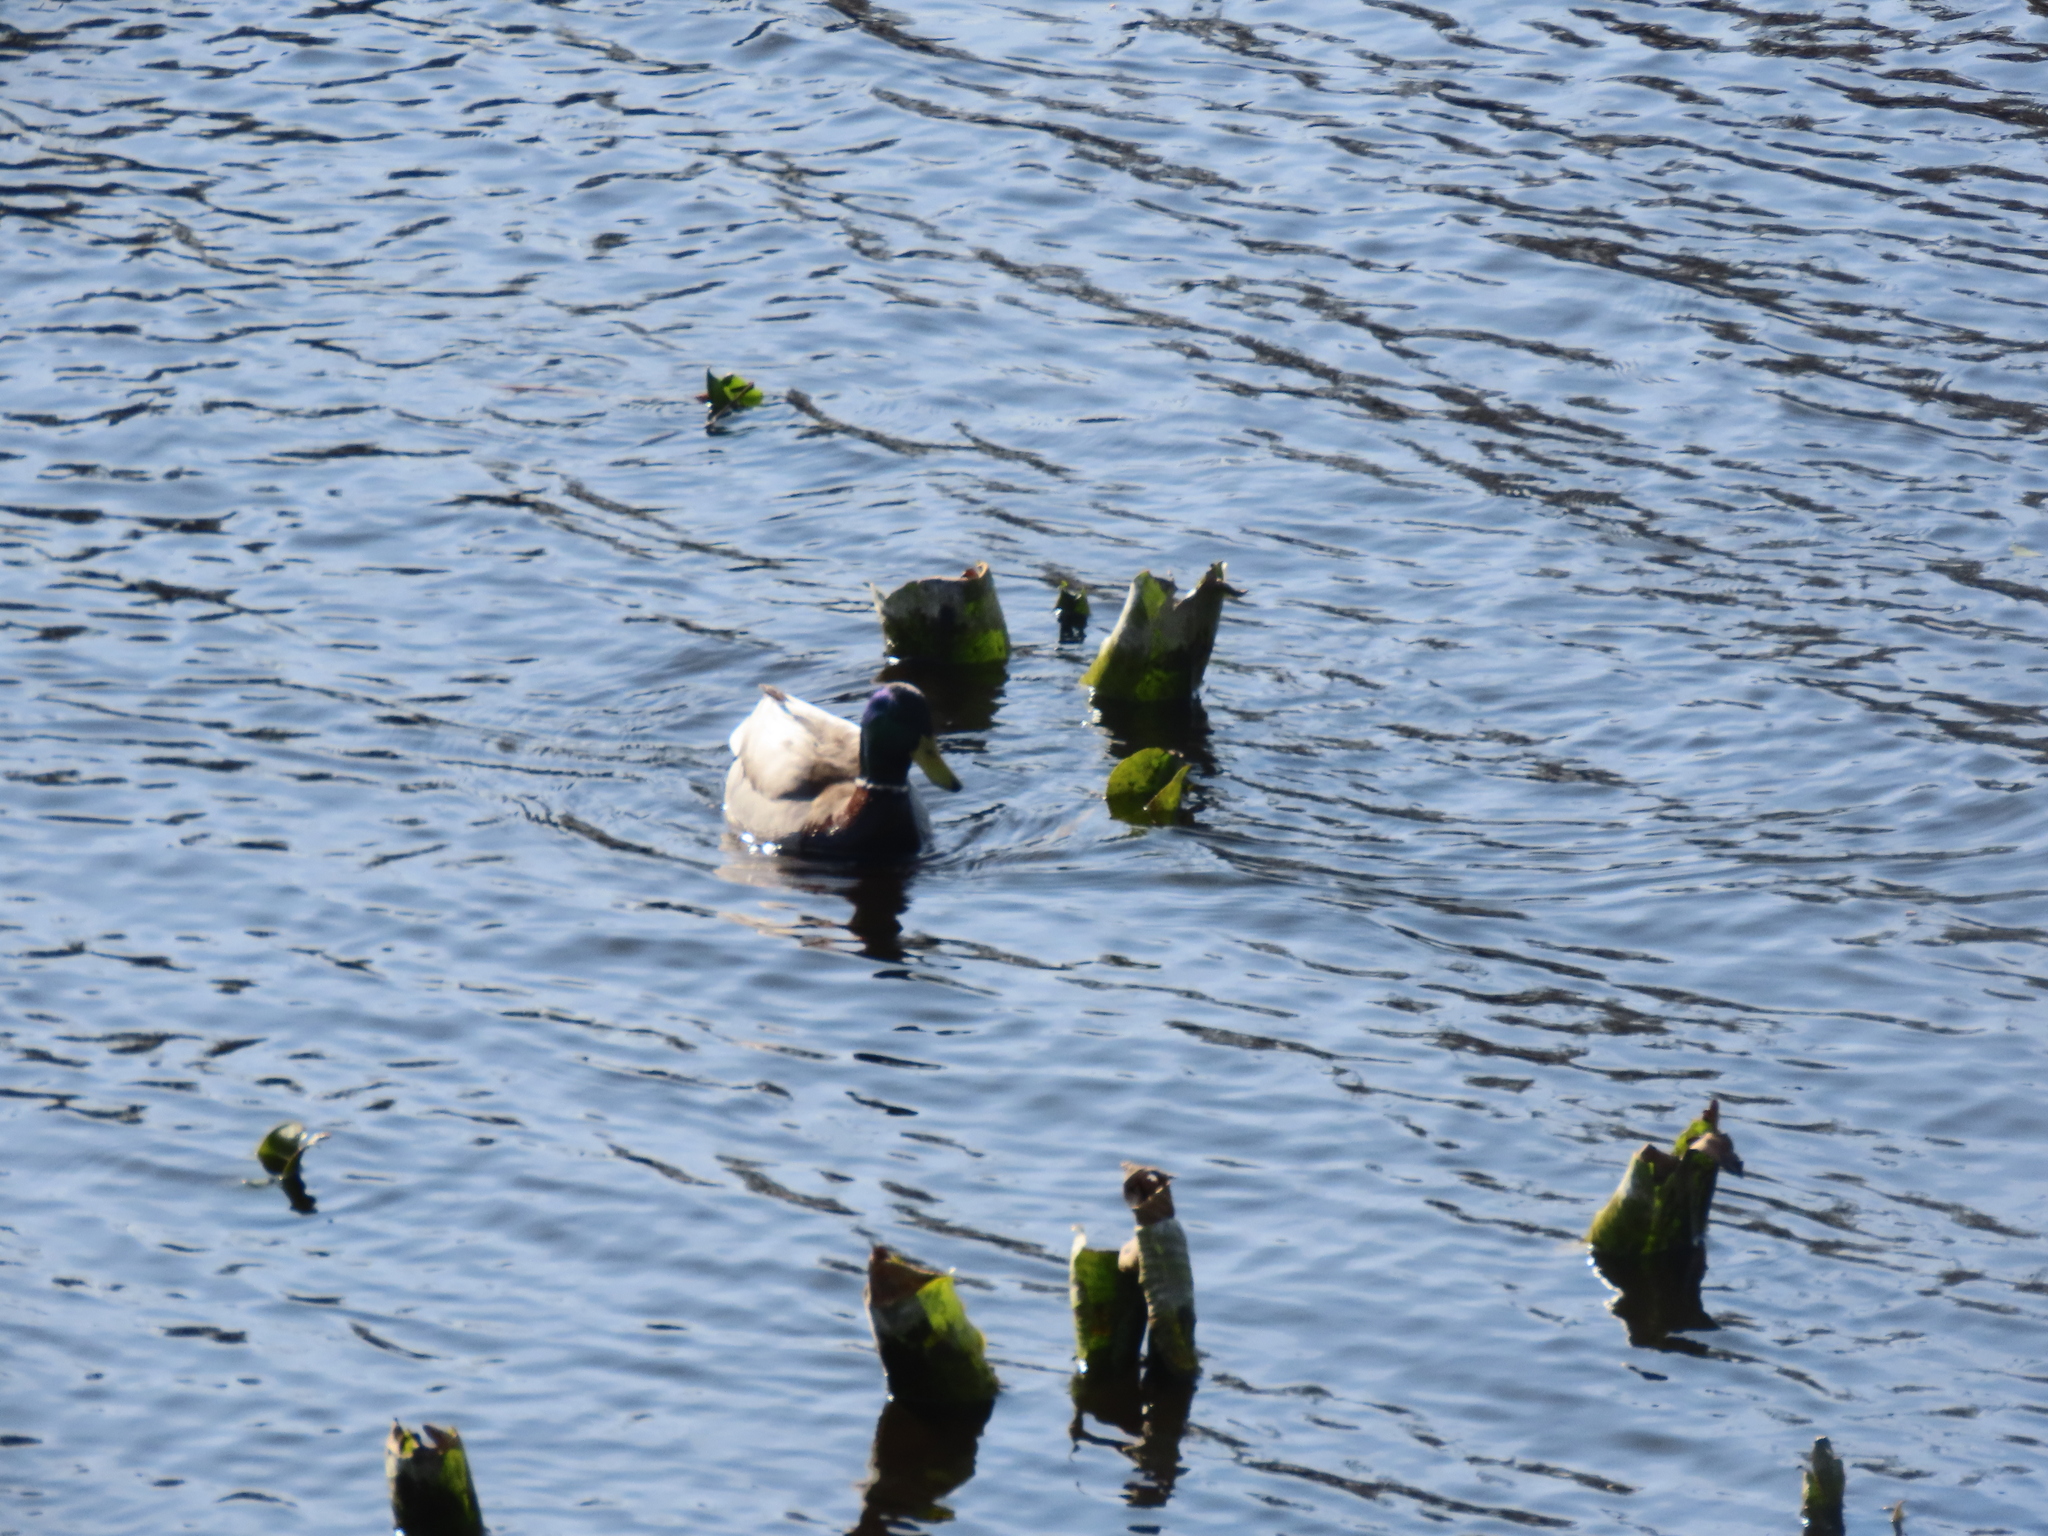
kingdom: Animalia
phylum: Chordata
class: Aves
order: Anseriformes
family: Anatidae
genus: Anas
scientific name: Anas platyrhynchos
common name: Mallard
